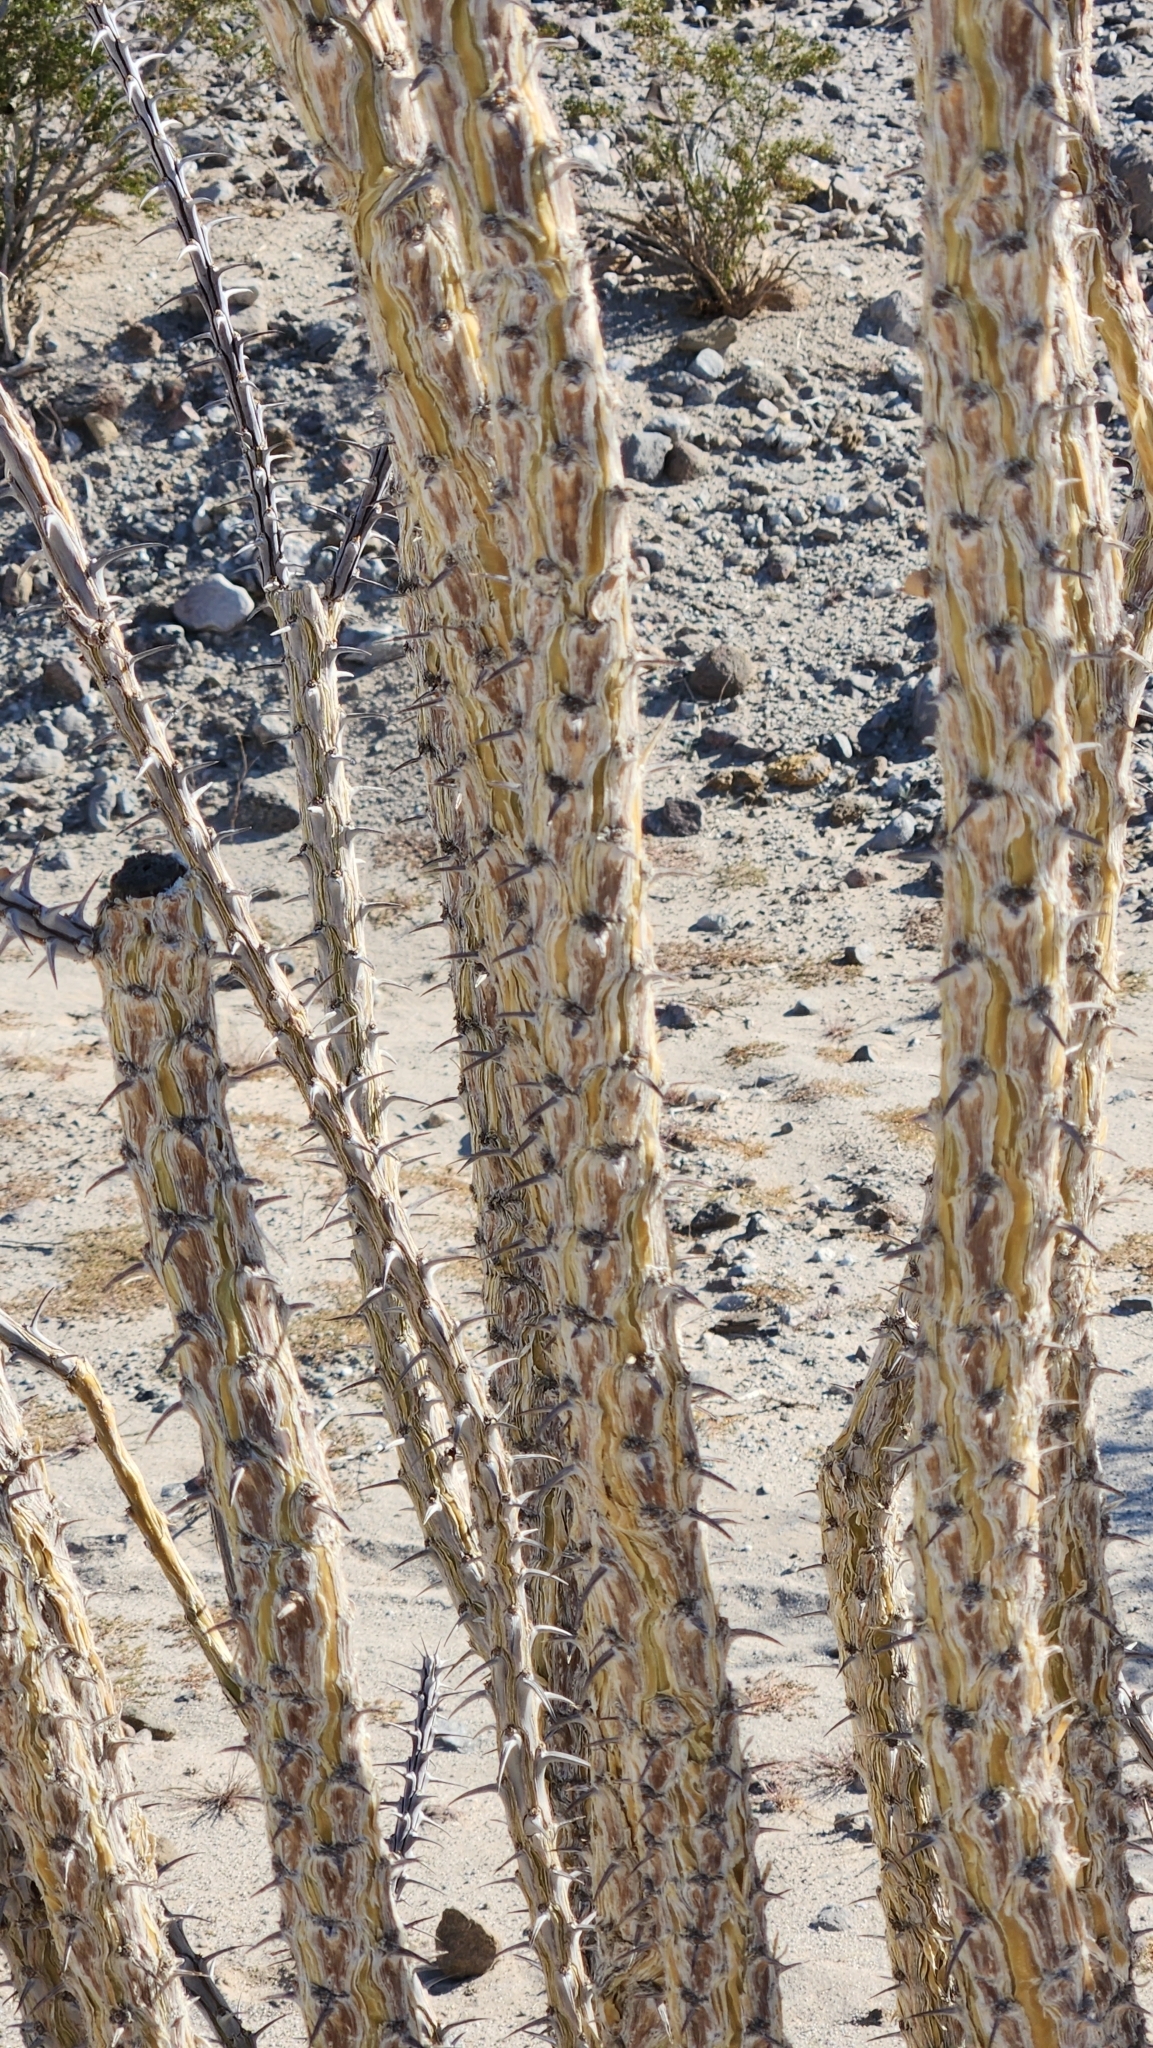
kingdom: Plantae
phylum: Tracheophyta
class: Magnoliopsida
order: Ericales
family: Fouquieriaceae
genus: Fouquieria
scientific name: Fouquieria splendens
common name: Vine-cactus
